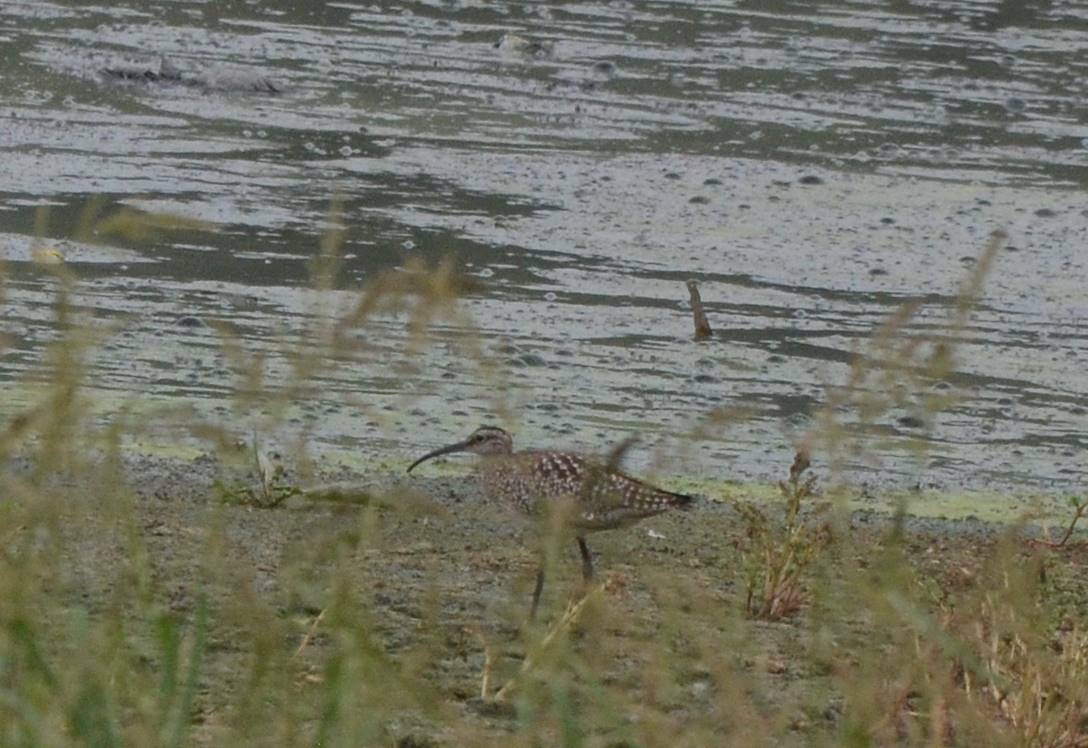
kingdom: Animalia
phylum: Chordata
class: Aves
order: Charadriiformes
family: Scolopacidae
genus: Numenius
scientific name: Numenius phaeopus
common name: Whimbrel
